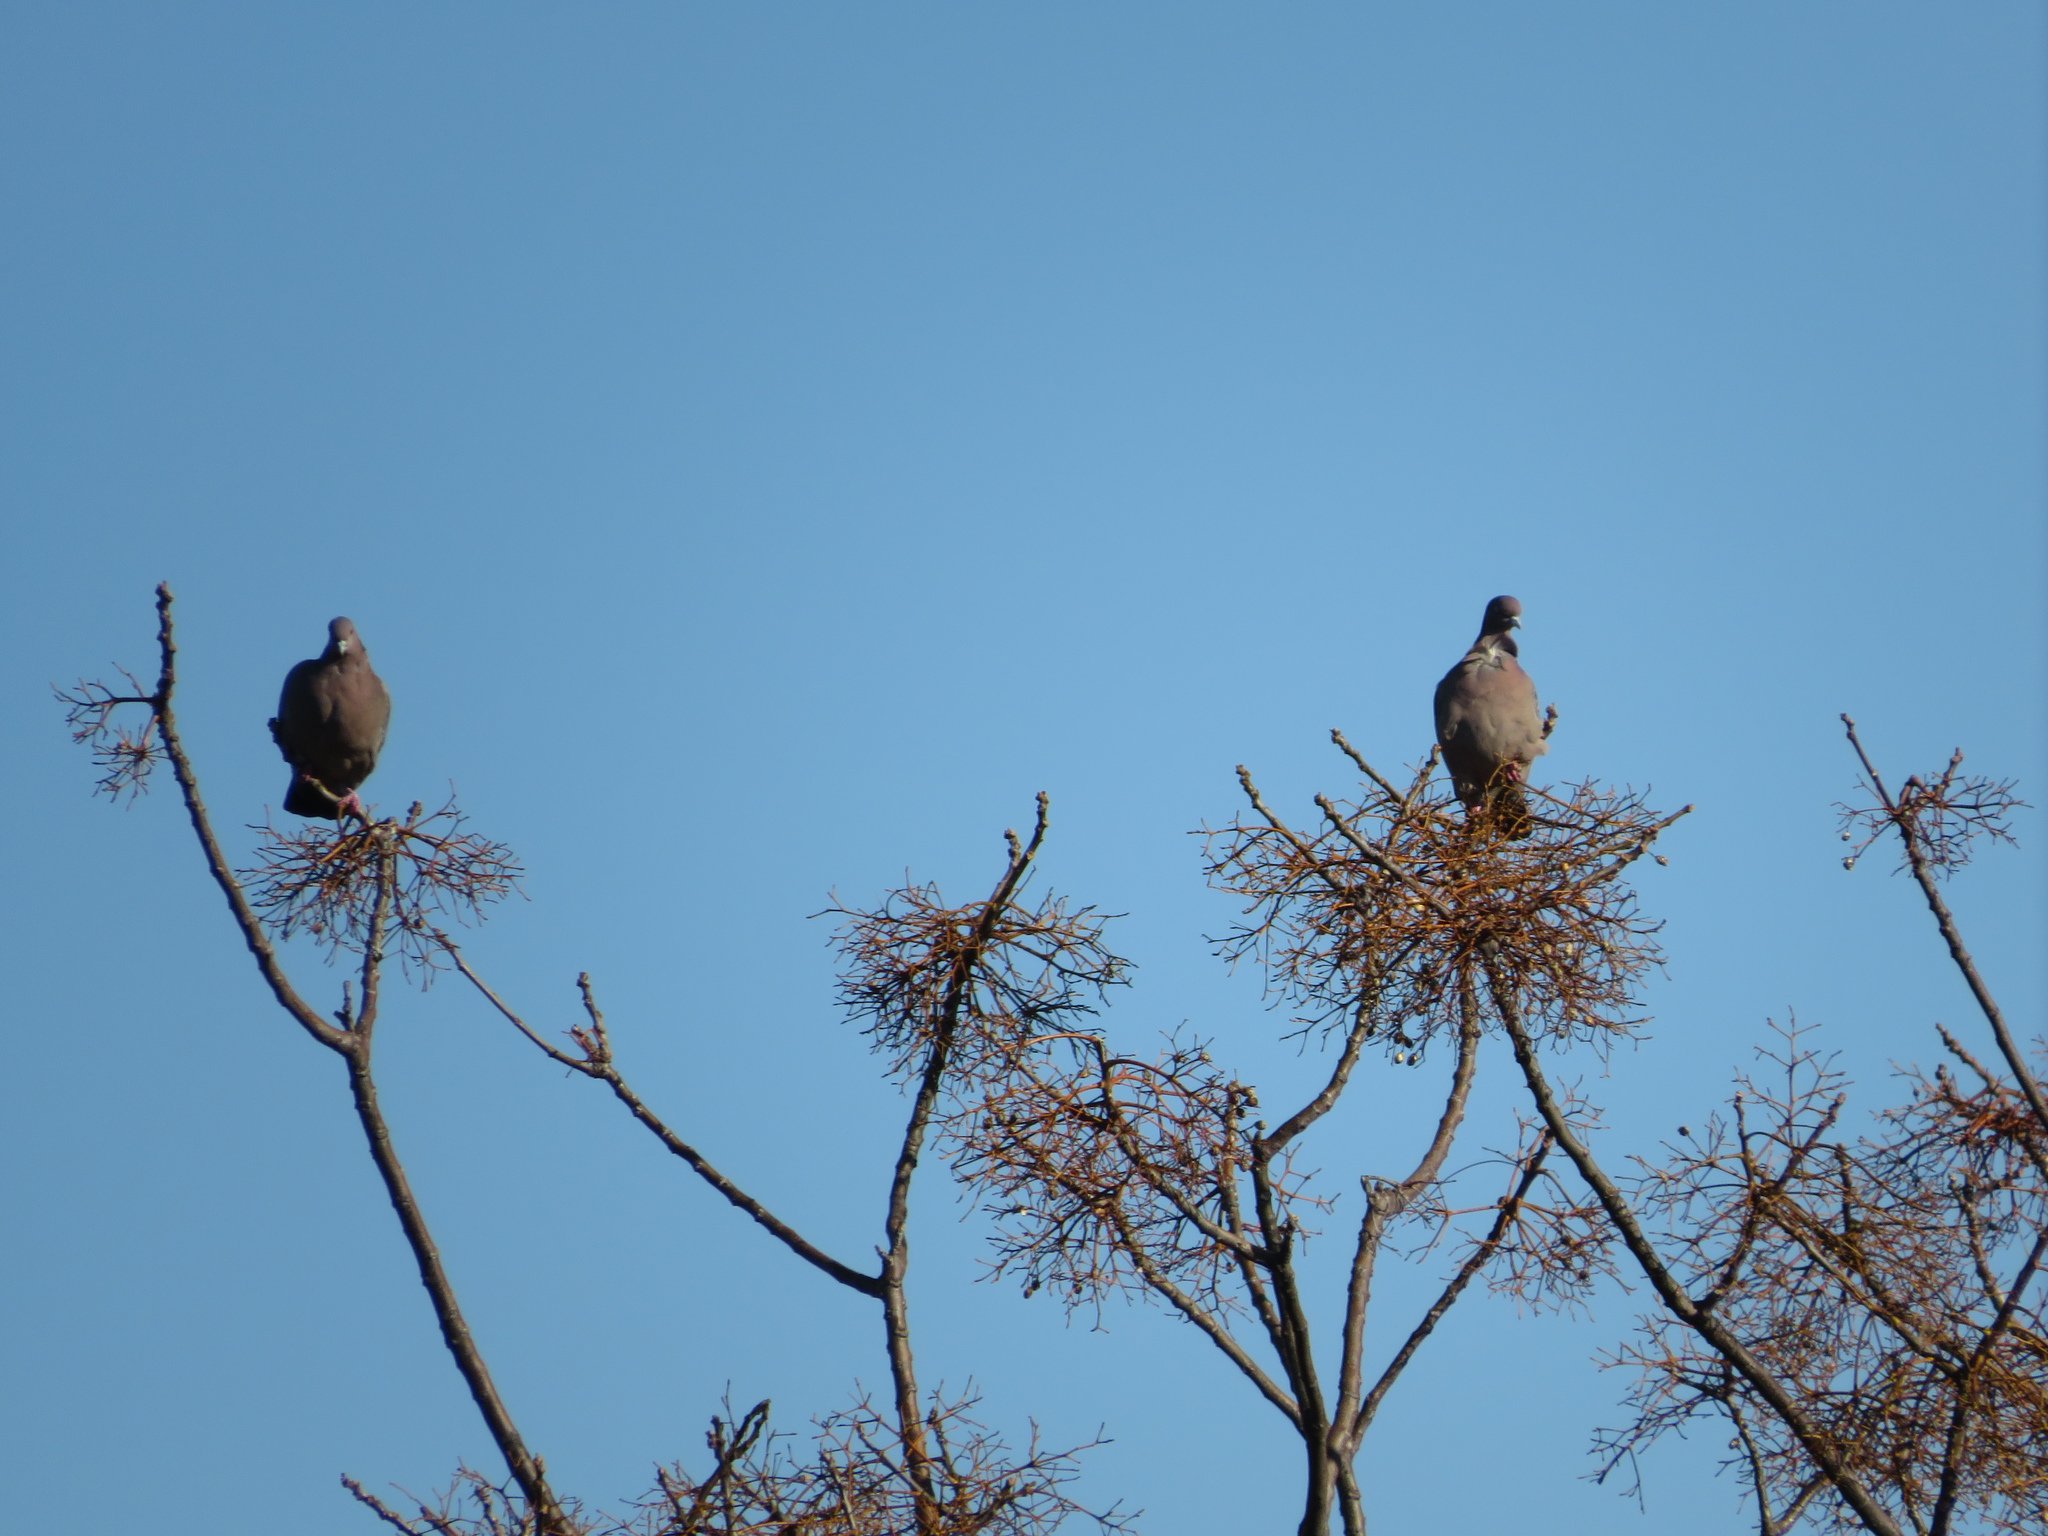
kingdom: Animalia
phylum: Chordata
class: Aves
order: Columbiformes
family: Columbidae
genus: Patagioenas
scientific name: Patagioenas picazuro
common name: Picazuro pigeon
